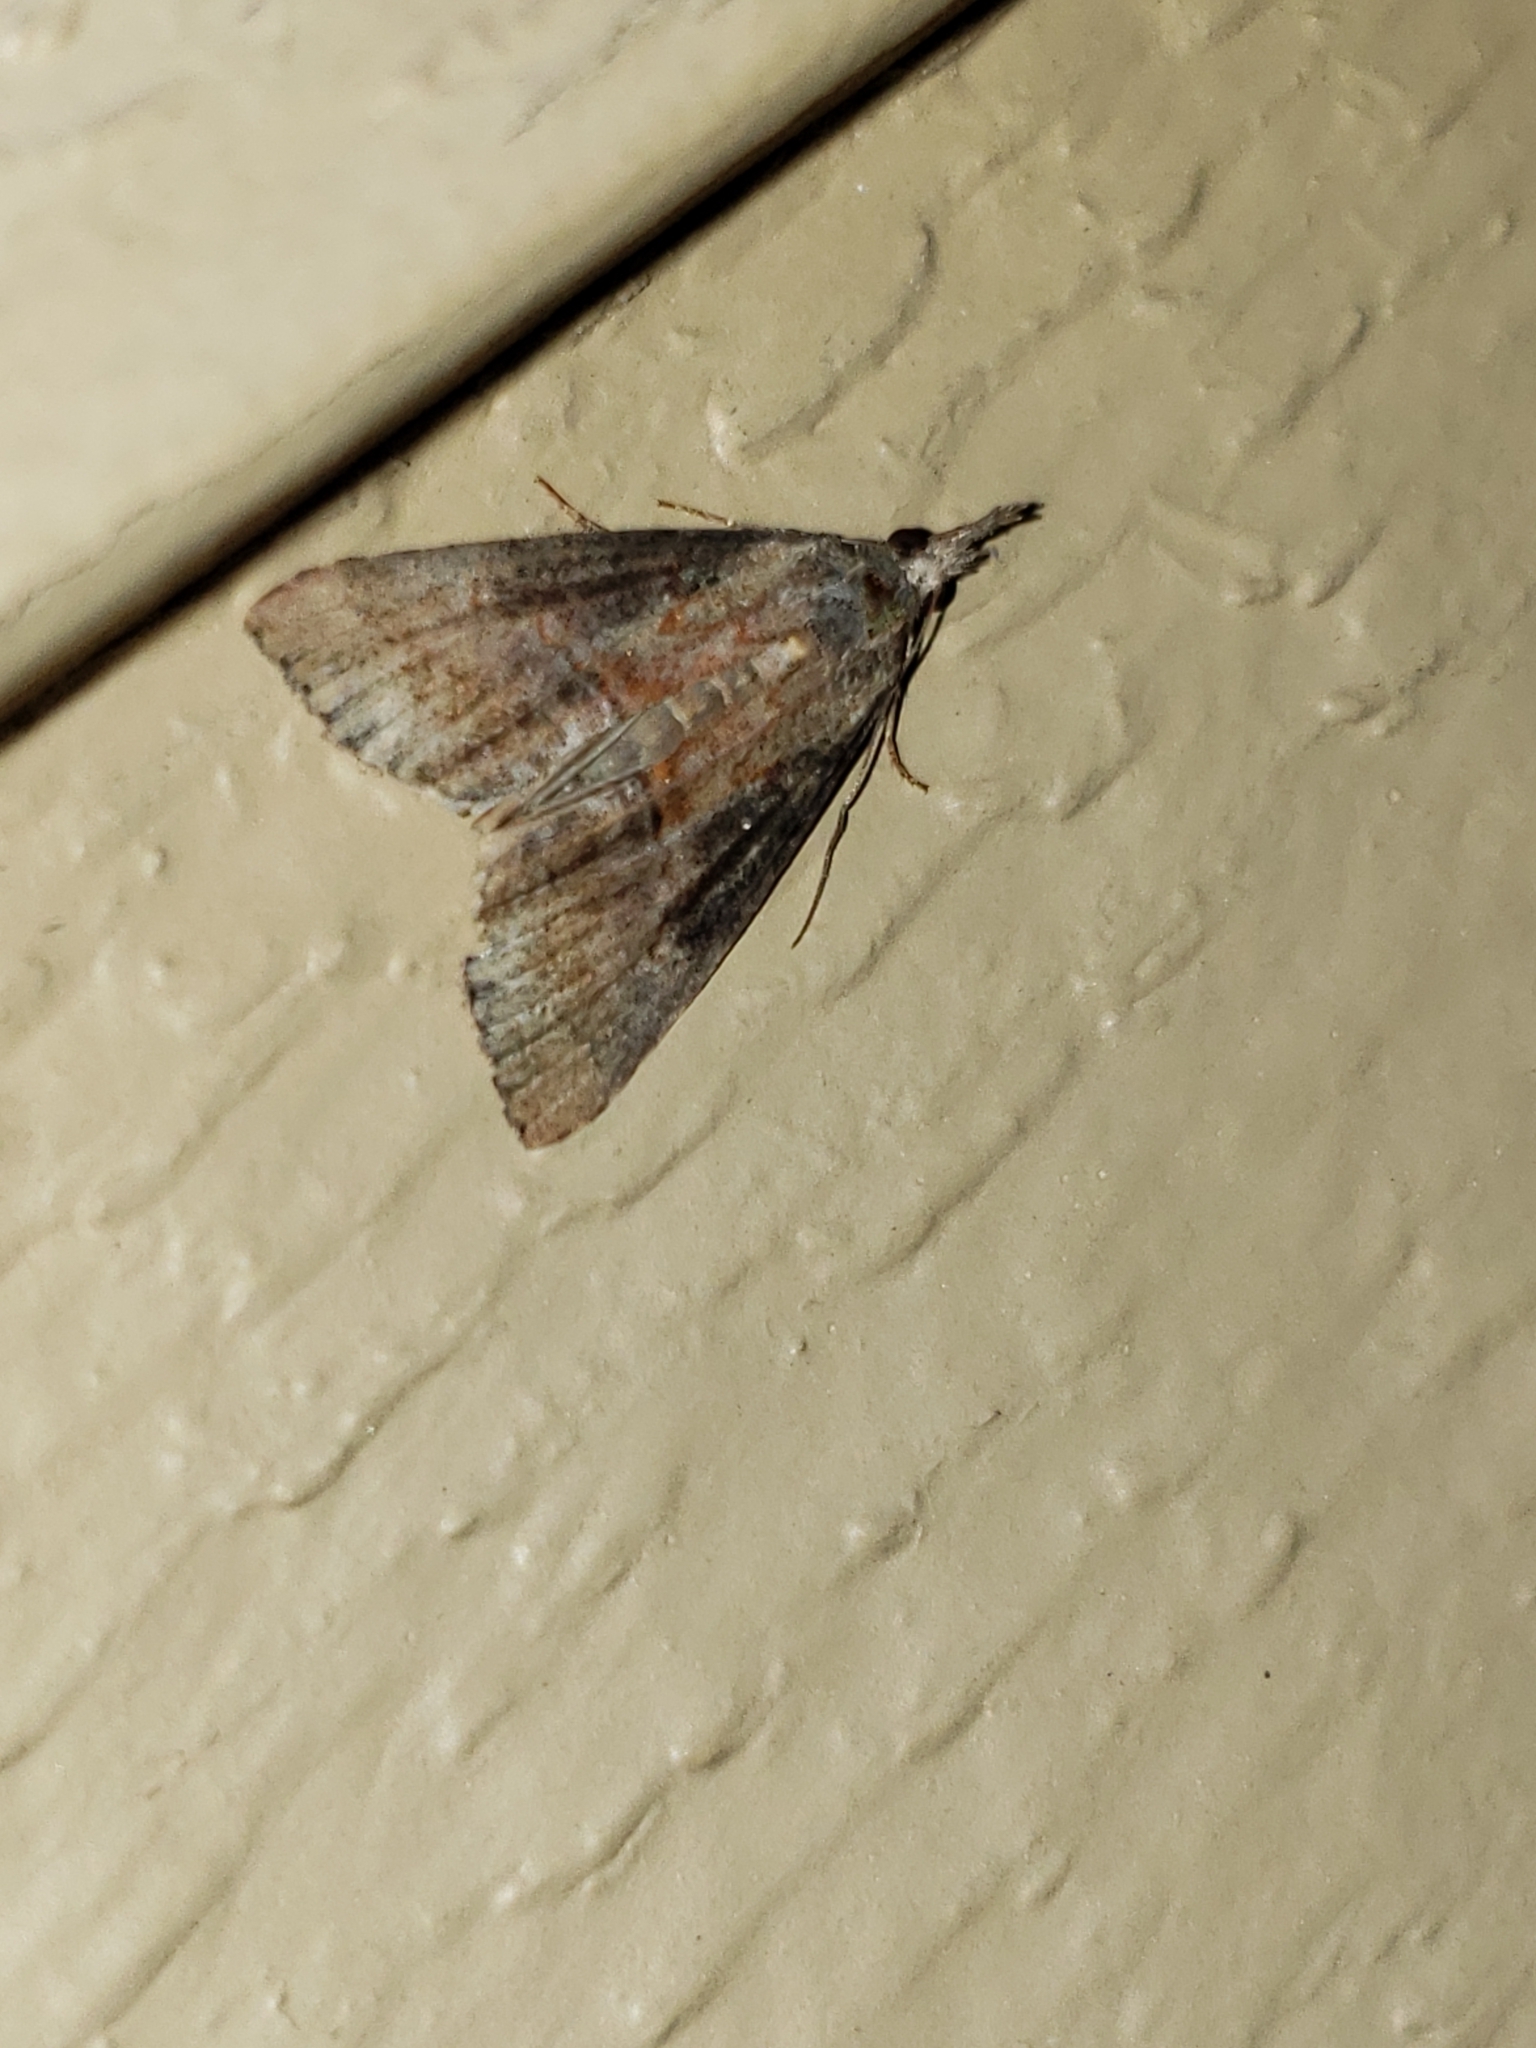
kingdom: Animalia
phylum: Arthropoda
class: Insecta
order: Lepidoptera
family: Erebidae
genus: Hypena
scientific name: Hypena scabra
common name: Green cloverworm
